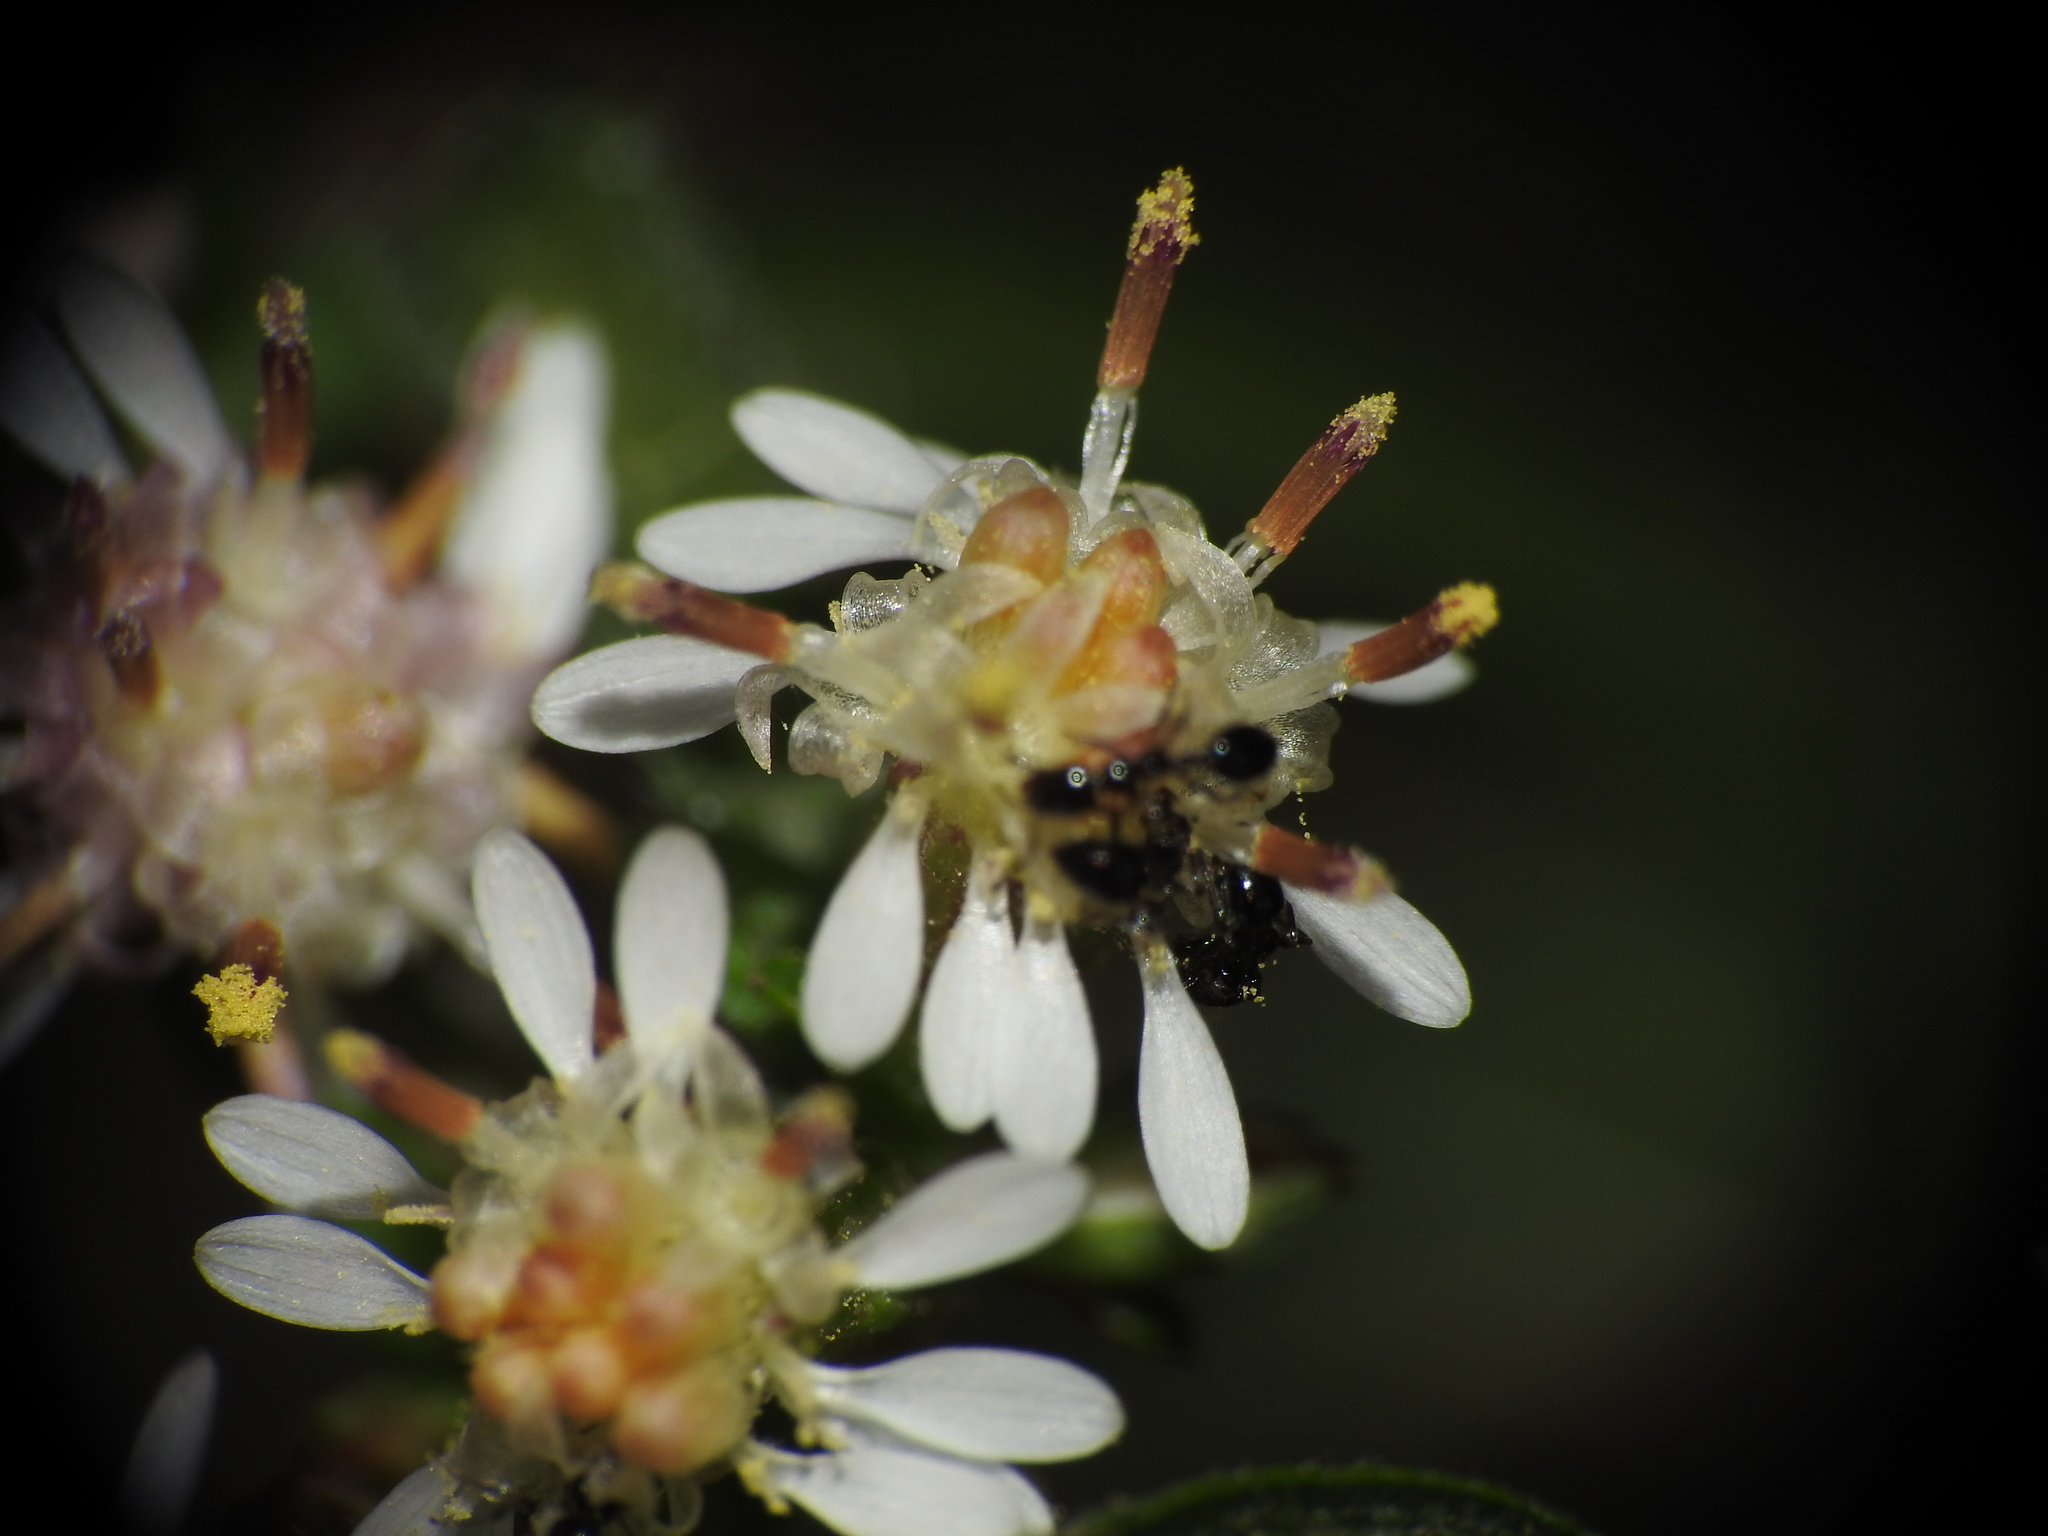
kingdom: Animalia
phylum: Arthropoda
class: Insecta
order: Hymenoptera
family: Formicidae
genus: Monomorium
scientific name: Monomorium minimum
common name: Little black ant
